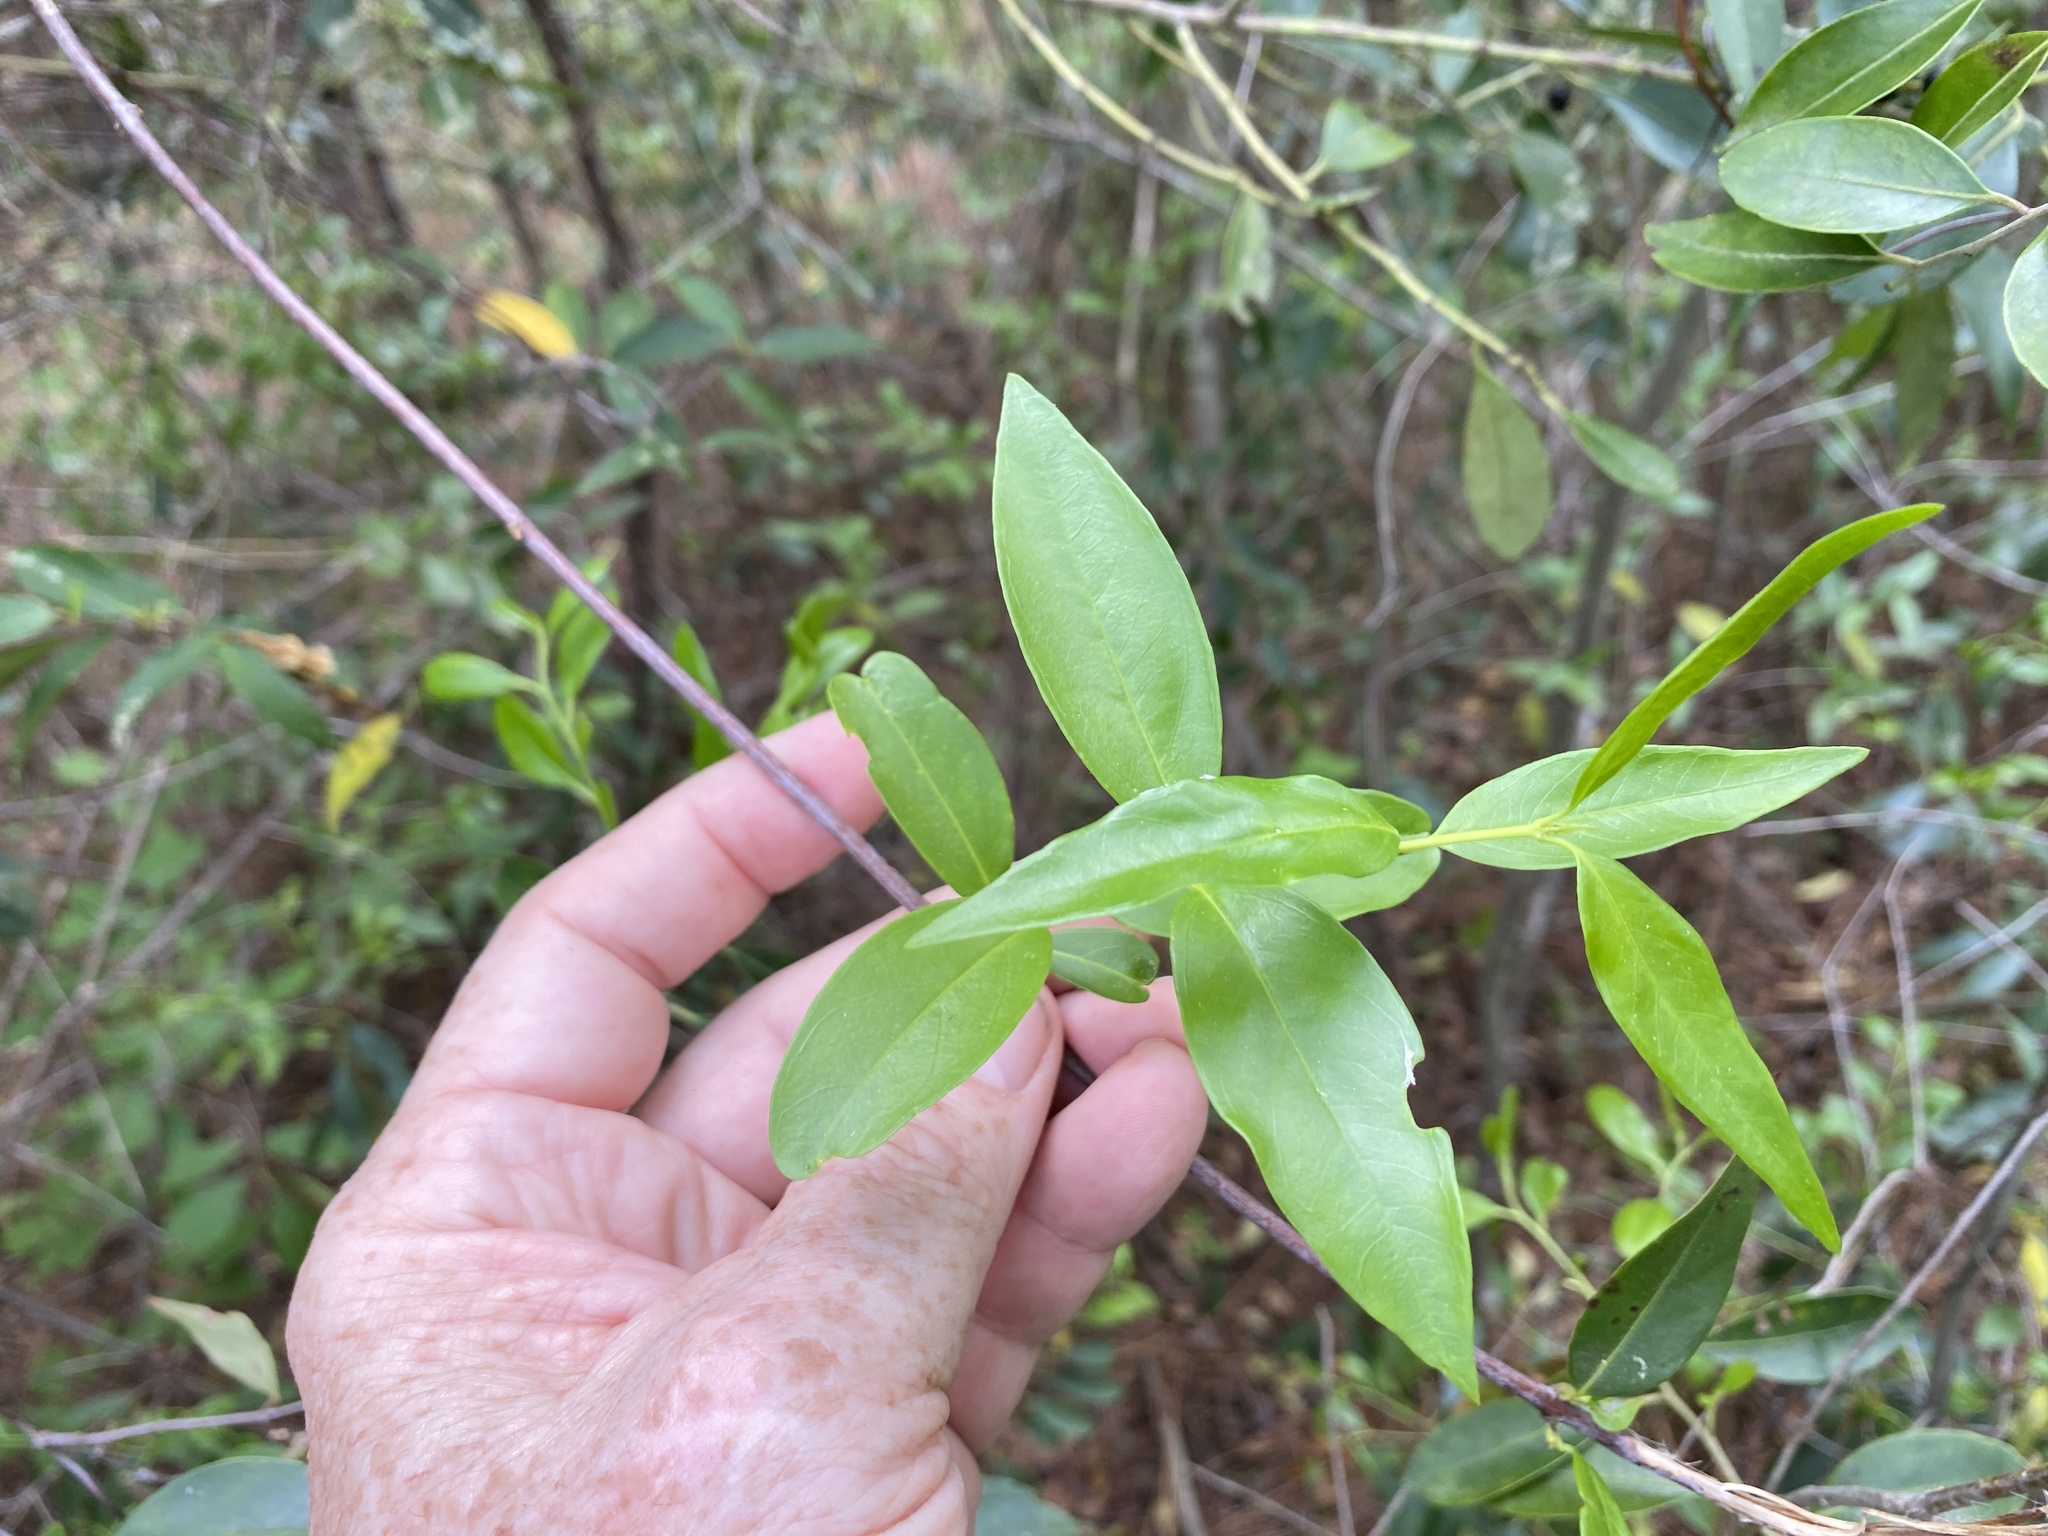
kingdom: Plantae
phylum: Tracheophyta
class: Magnoliopsida
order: Gentianales
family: Gelsemiaceae
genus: Gelsemium
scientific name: Gelsemium sempervirens
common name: Carolina-jasmine
